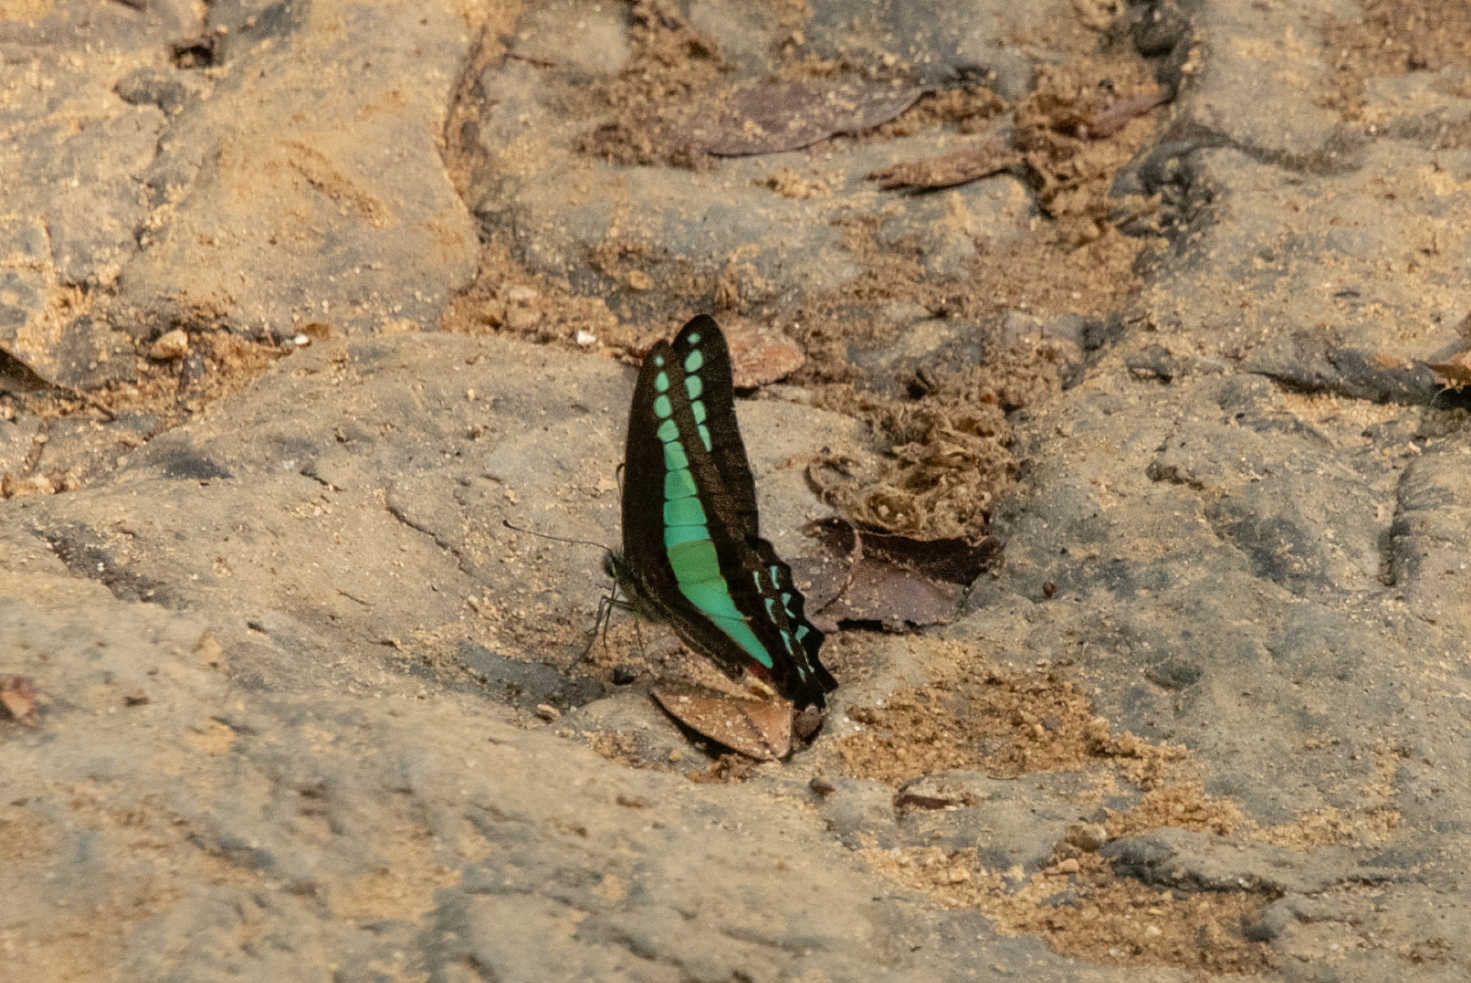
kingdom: Fungi
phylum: Ascomycota
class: Sordariomycetes
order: Microascales
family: Microascaceae
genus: Graphium
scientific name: Graphium sarpedon
